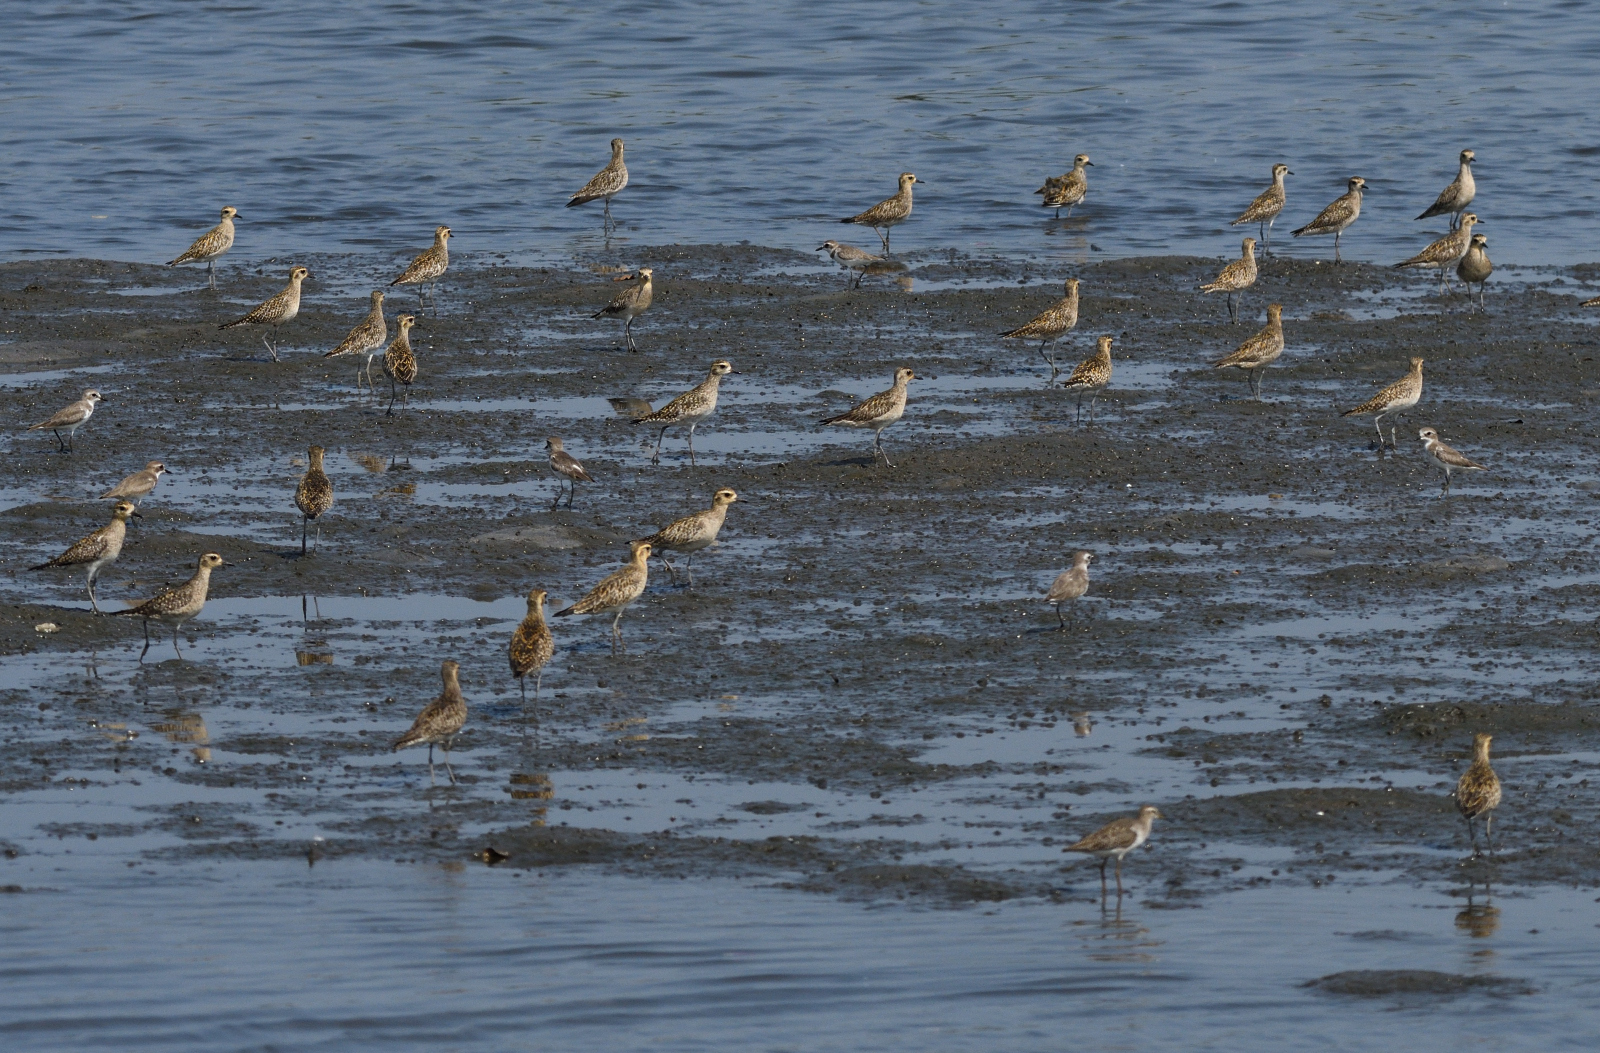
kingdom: Animalia
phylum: Chordata
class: Aves
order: Charadriiformes
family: Charadriidae
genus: Pluvialis
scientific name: Pluvialis fulva
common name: Pacific golden plover
